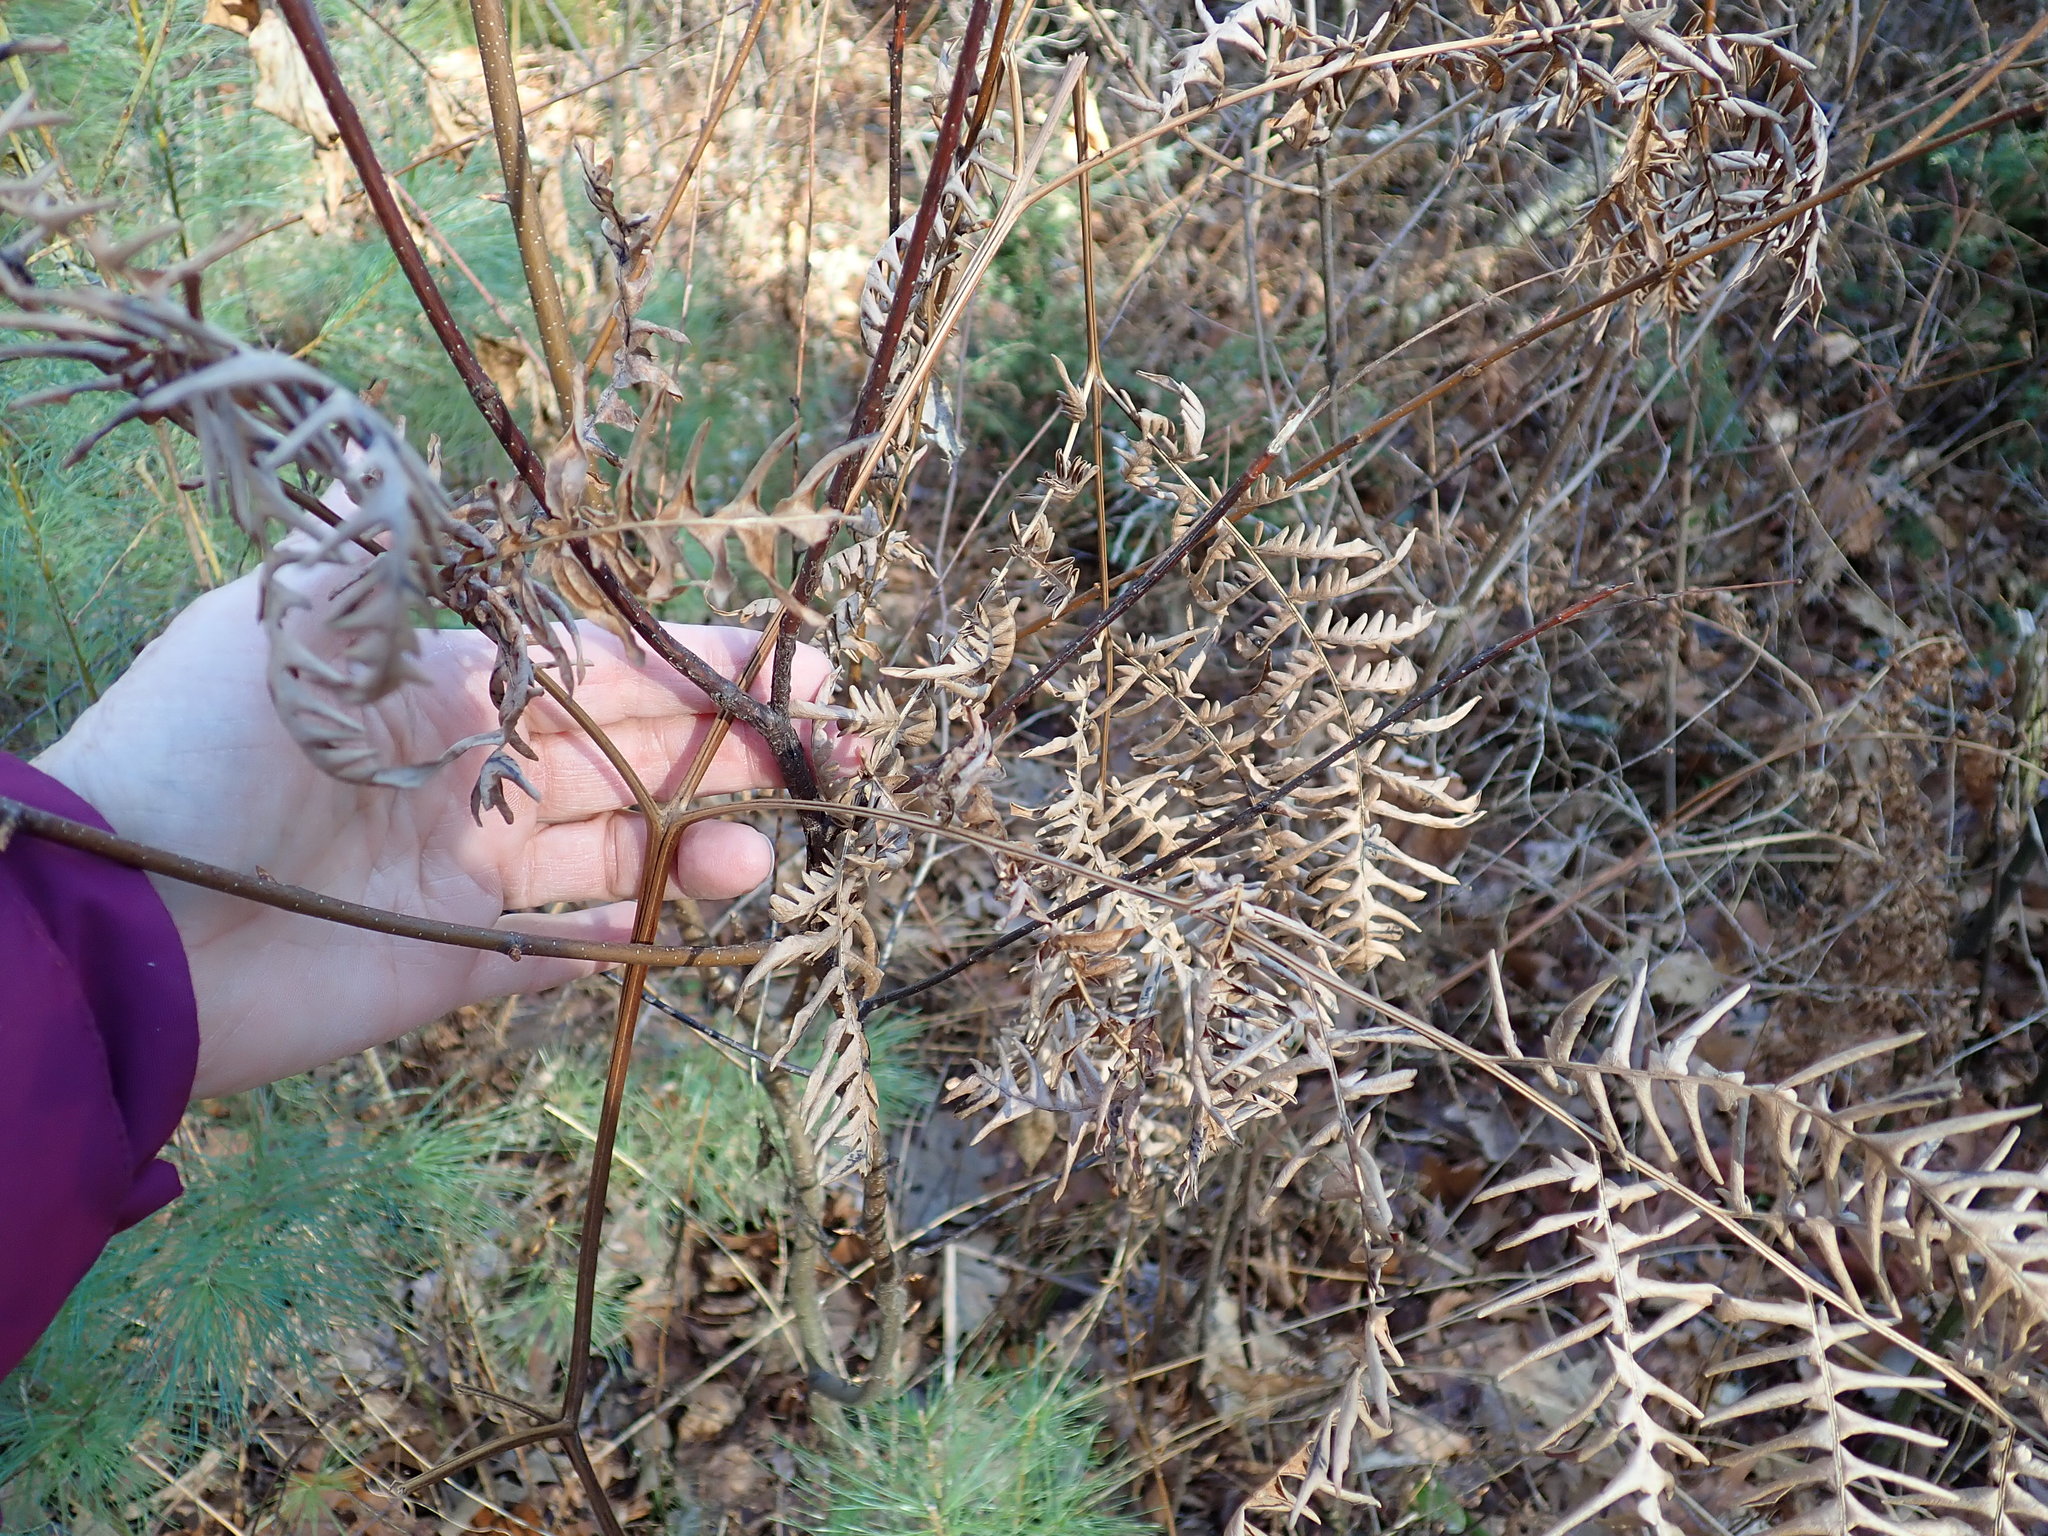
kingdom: Plantae
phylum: Tracheophyta
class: Polypodiopsida
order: Polypodiales
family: Dennstaedtiaceae
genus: Pteridium
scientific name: Pteridium aquilinum
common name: Bracken
